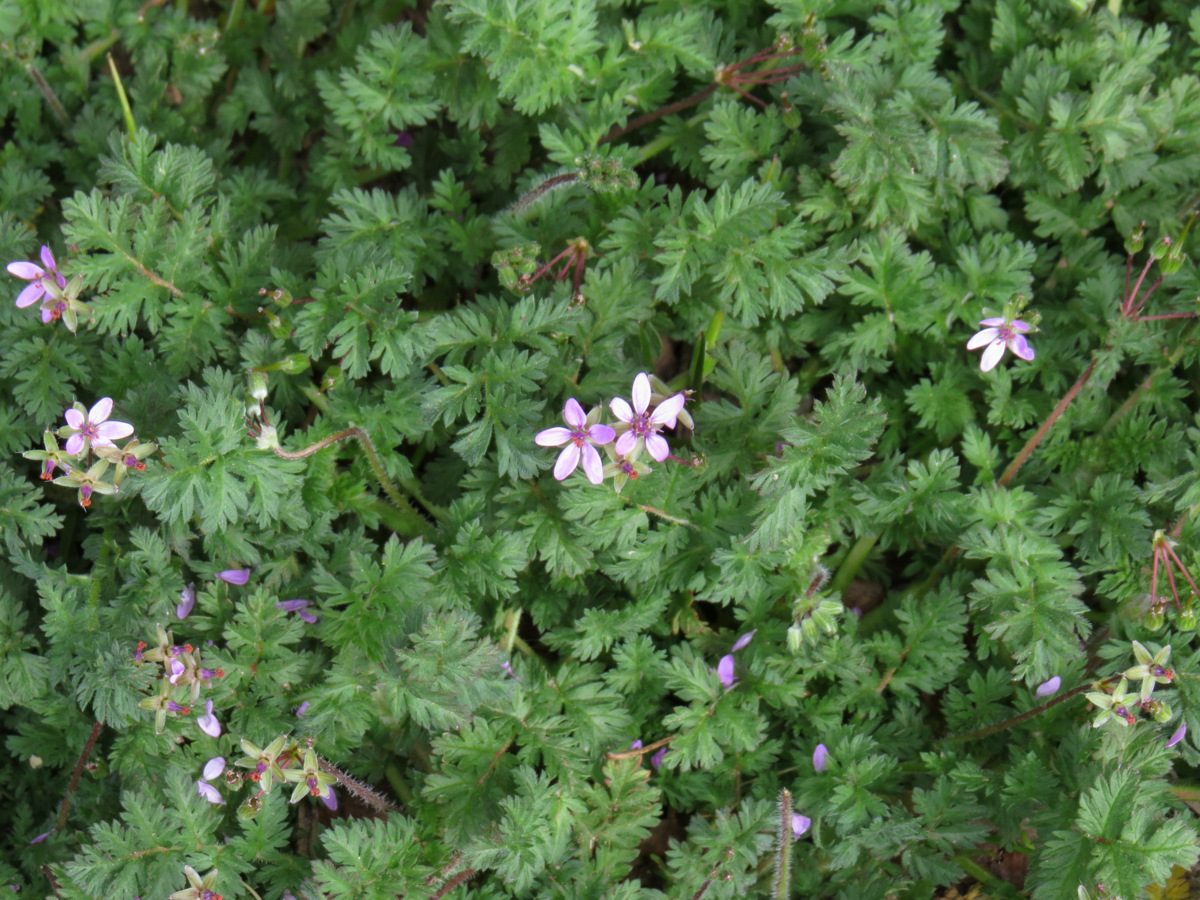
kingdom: Plantae
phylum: Tracheophyta
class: Magnoliopsida
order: Geraniales
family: Geraniaceae
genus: Erodium
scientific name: Erodium cicutarium
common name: Common stork's-bill
